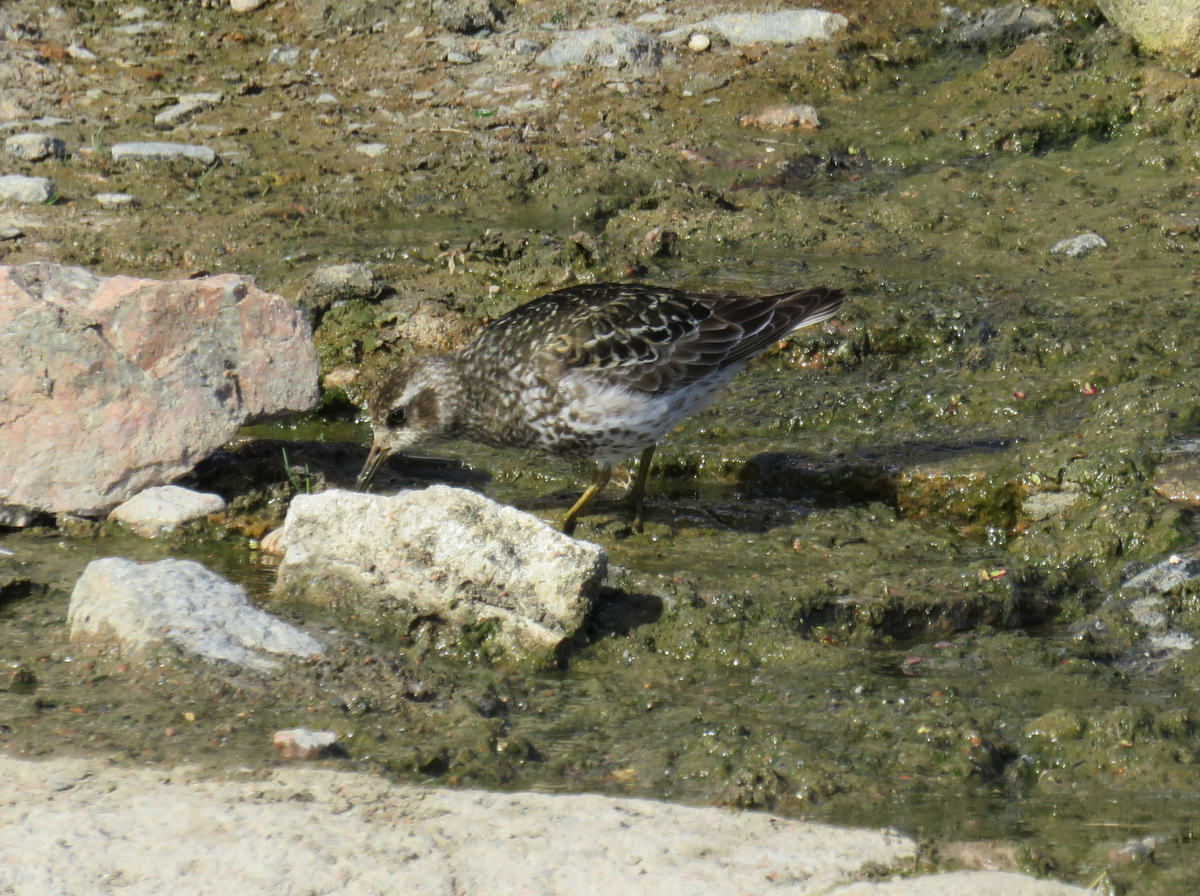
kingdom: Animalia
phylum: Chordata
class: Aves
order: Charadriiformes
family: Scolopacidae
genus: Calidris
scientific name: Calidris maritima
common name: Purple sandpiper
